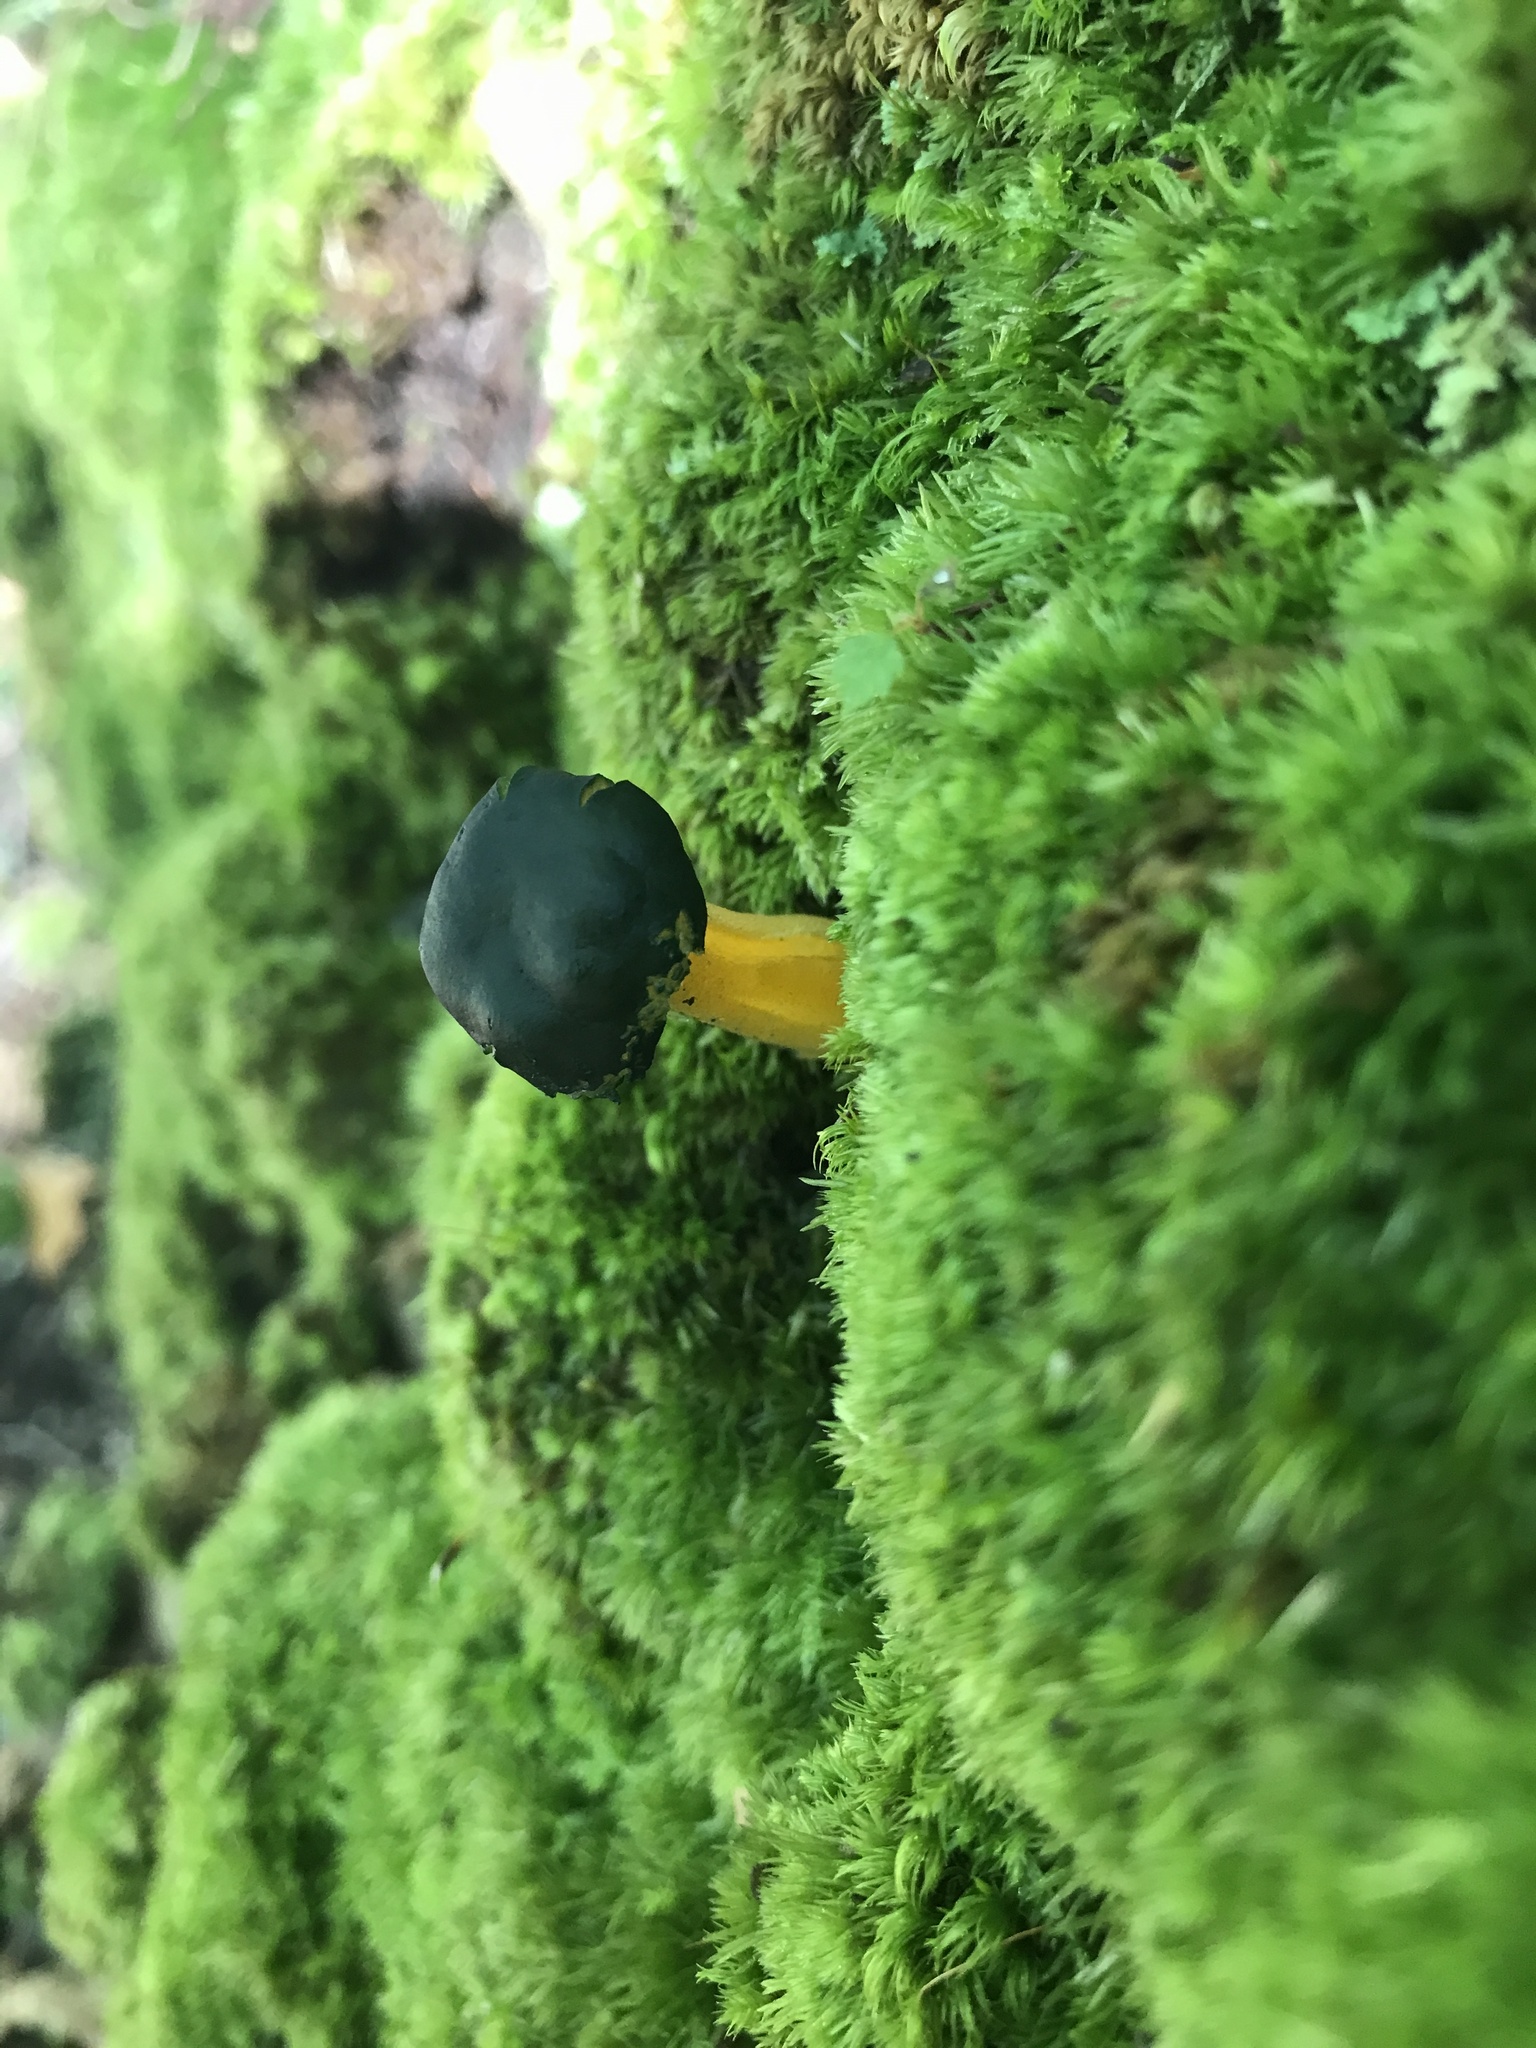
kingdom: Fungi
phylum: Ascomycota
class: Leotiomycetes
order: Leotiales
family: Leotiaceae
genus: Leotia
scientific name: Leotia lubrica
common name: Jellybaby
